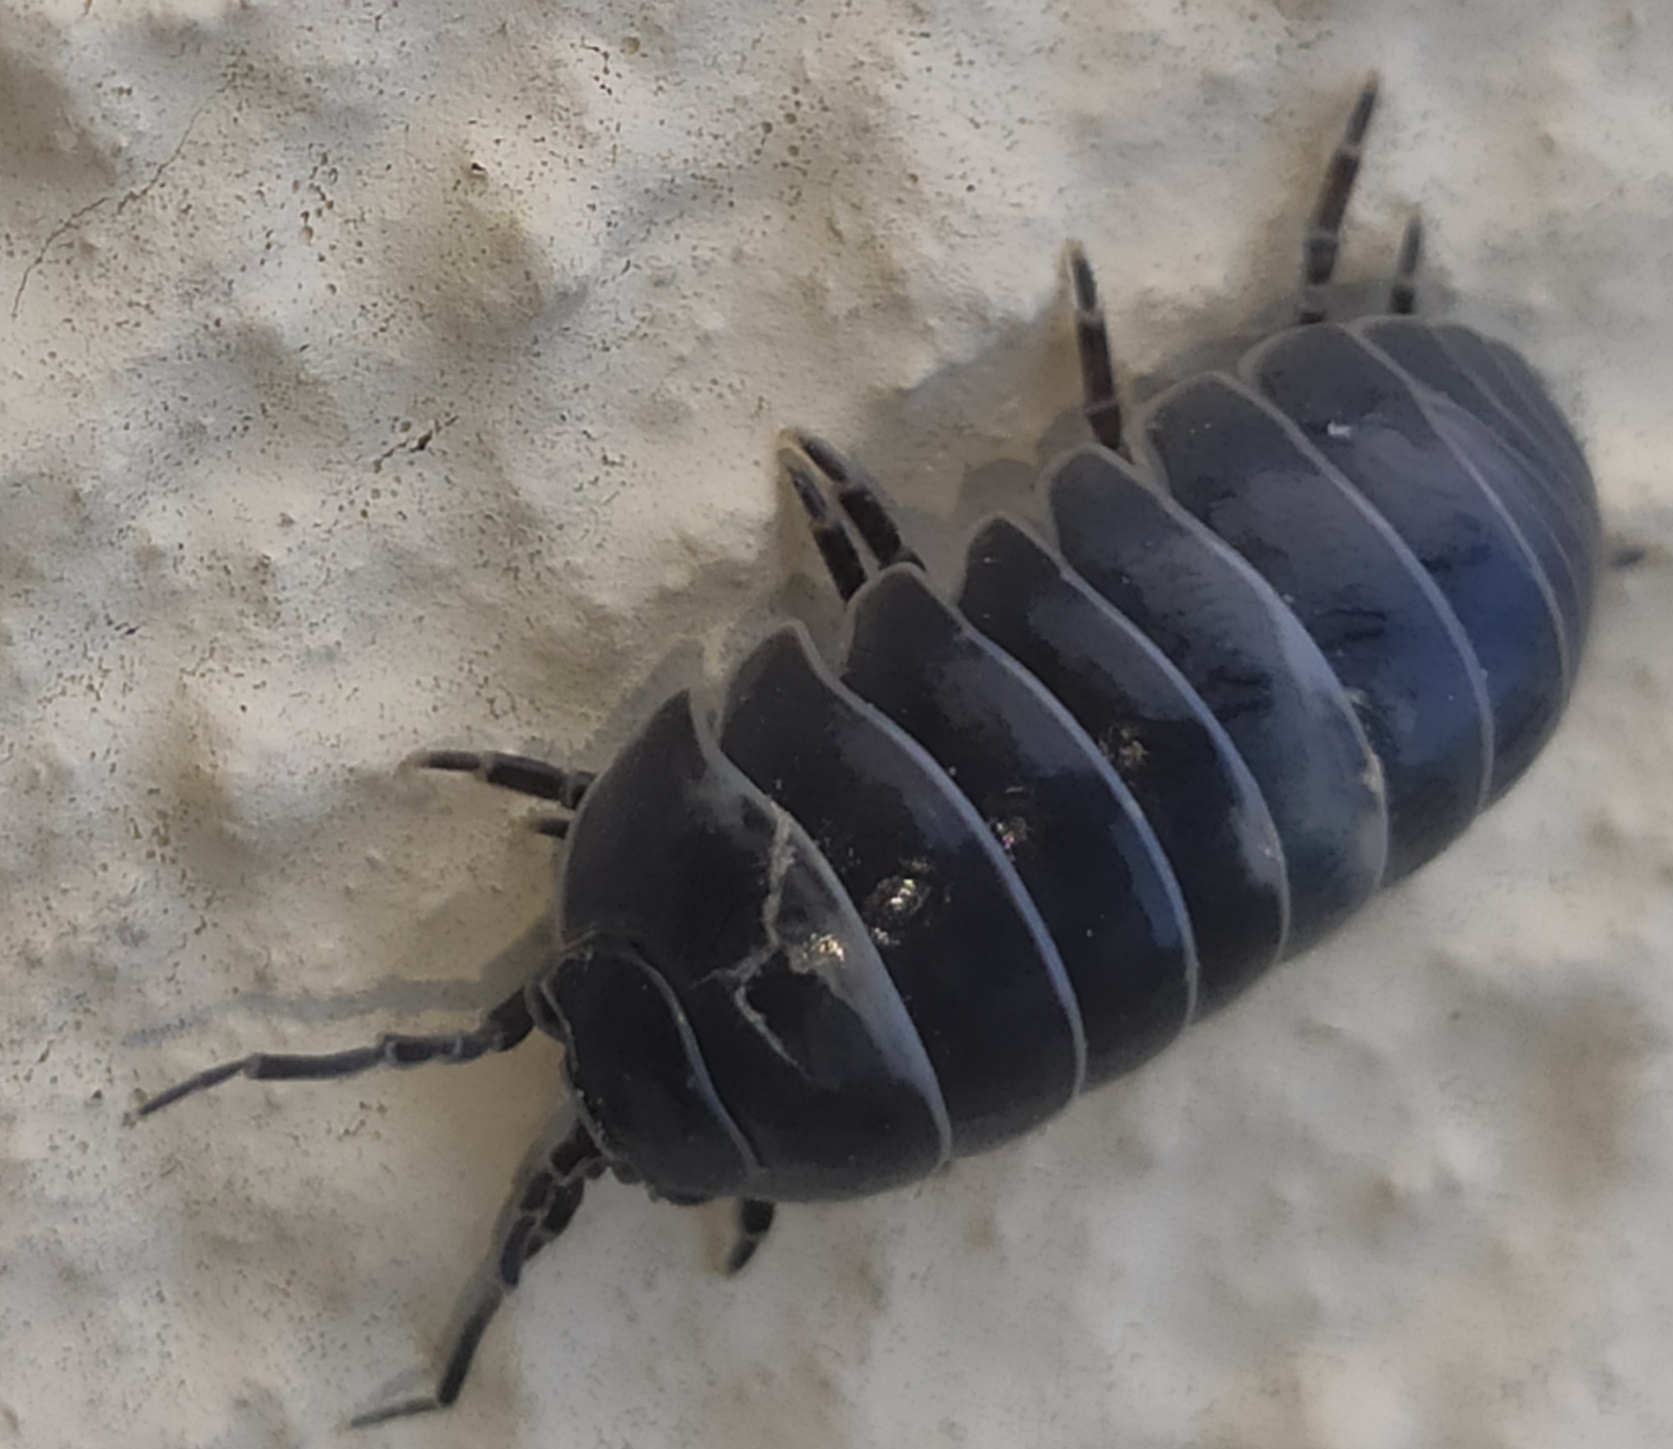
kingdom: Animalia
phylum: Arthropoda
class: Malacostraca
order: Isopoda
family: Armadillidiidae
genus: Armadillidium
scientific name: Armadillidium vulgare
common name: Common pill woodlouse
